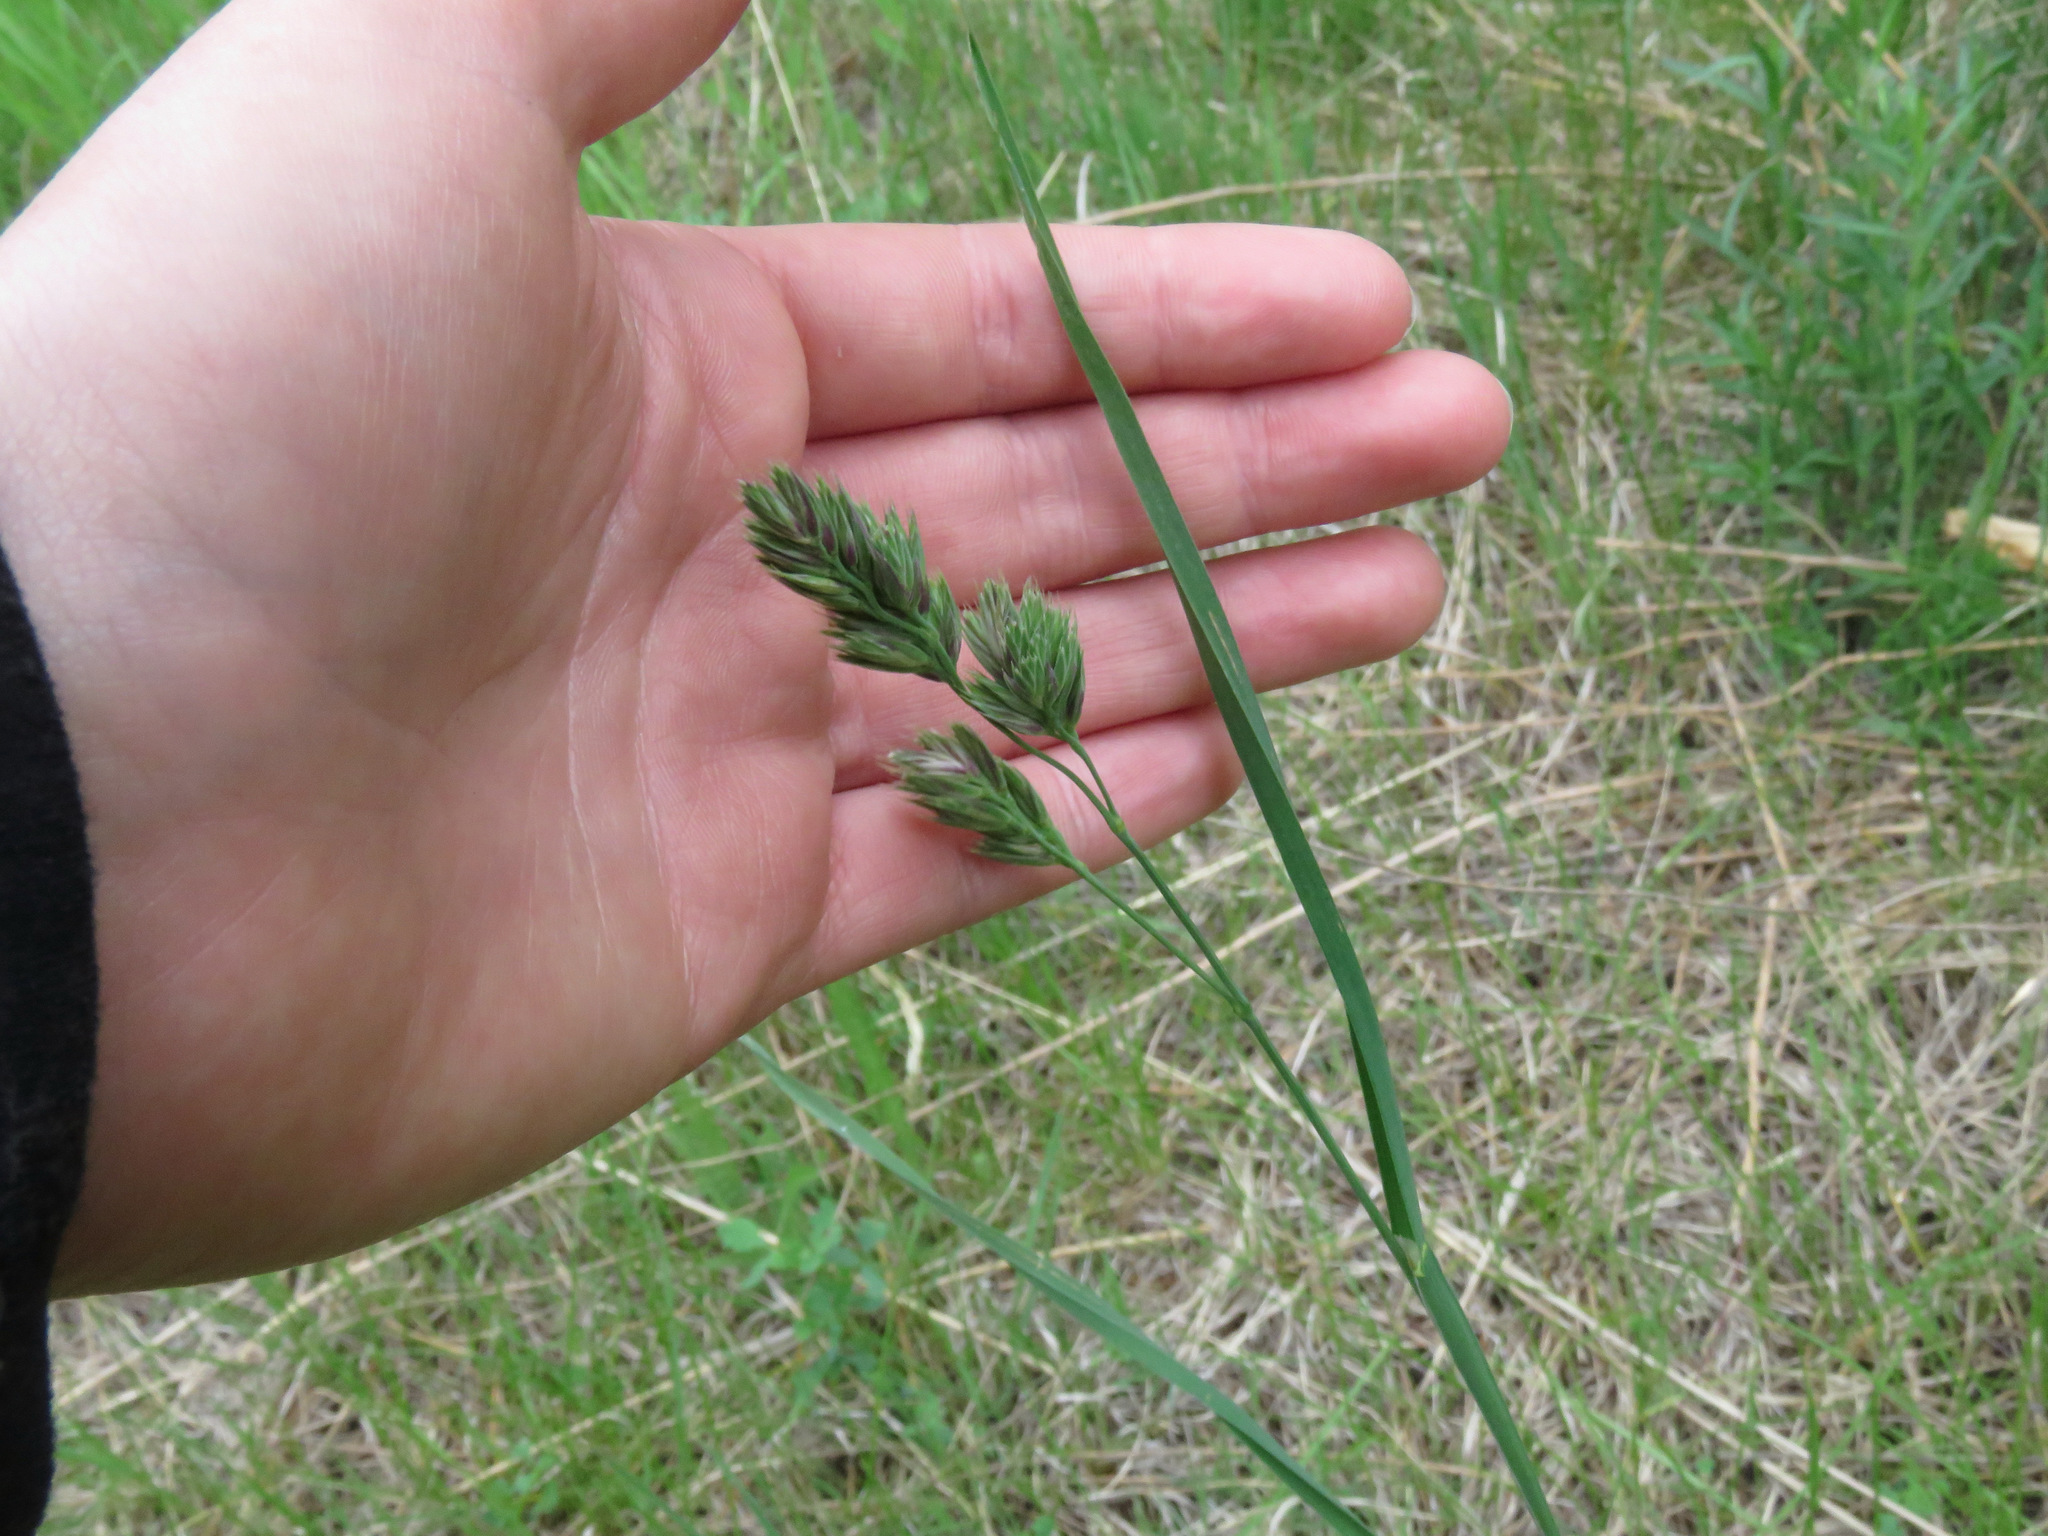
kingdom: Plantae
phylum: Tracheophyta
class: Liliopsida
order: Poales
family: Poaceae
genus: Dactylis
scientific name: Dactylis glomerata
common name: Orchardgrass
